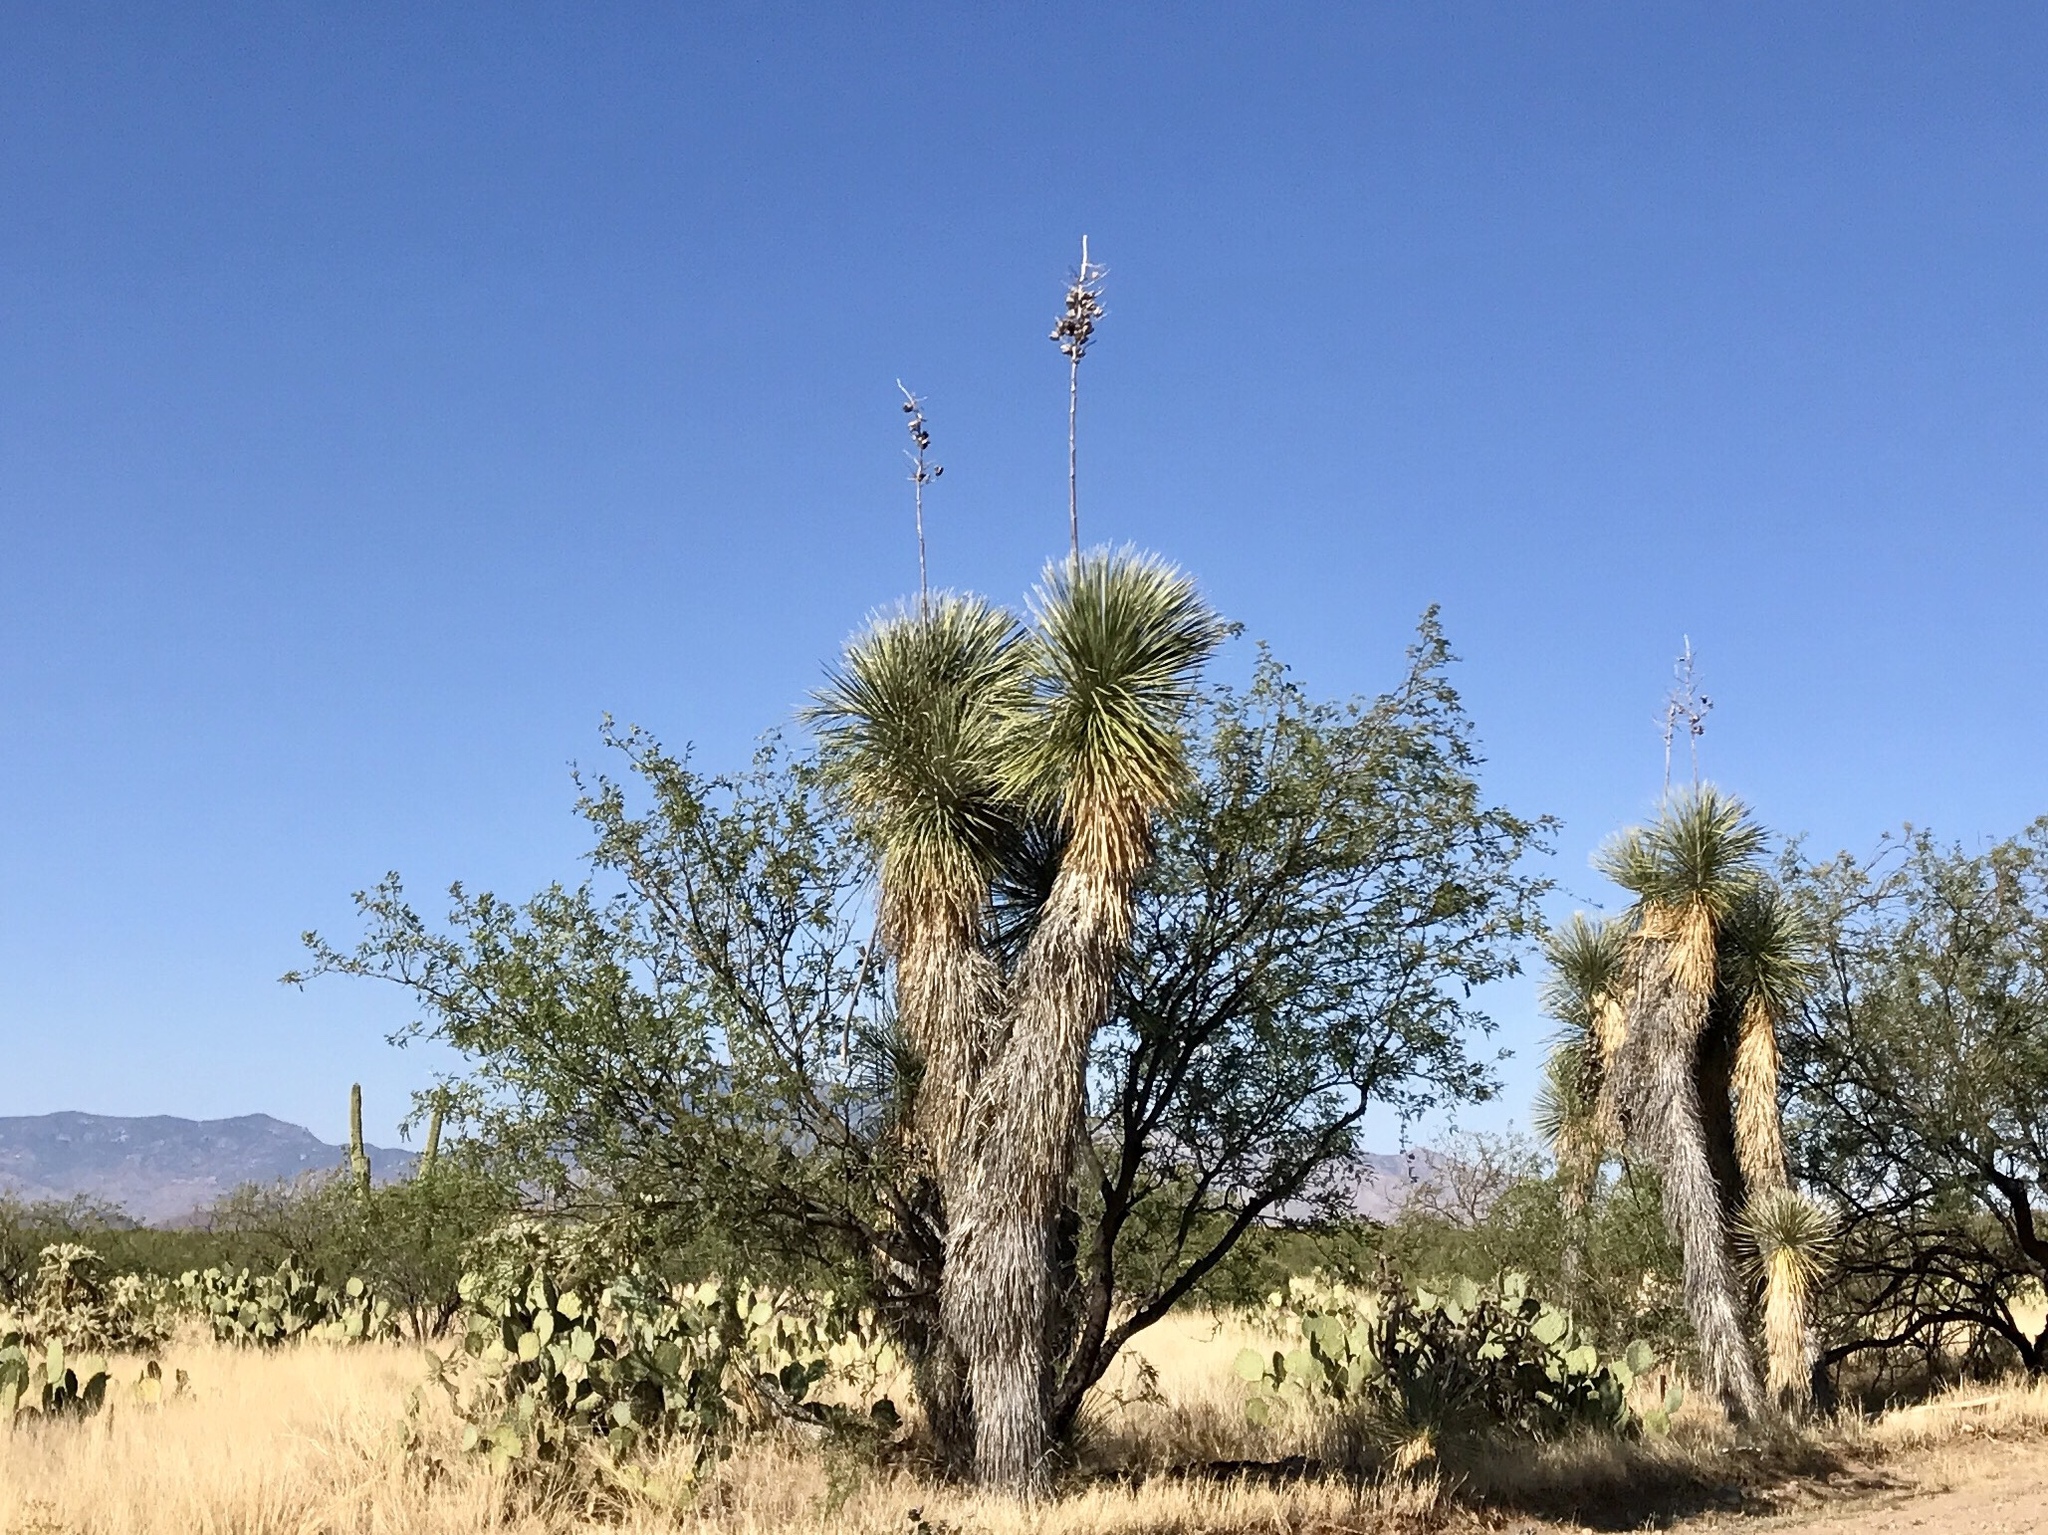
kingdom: Plantae
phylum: Tracheophyta
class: Liliopsida
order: Asparagales
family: Asparagaceae
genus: Yucca
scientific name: Yucca elata
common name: Palmella
